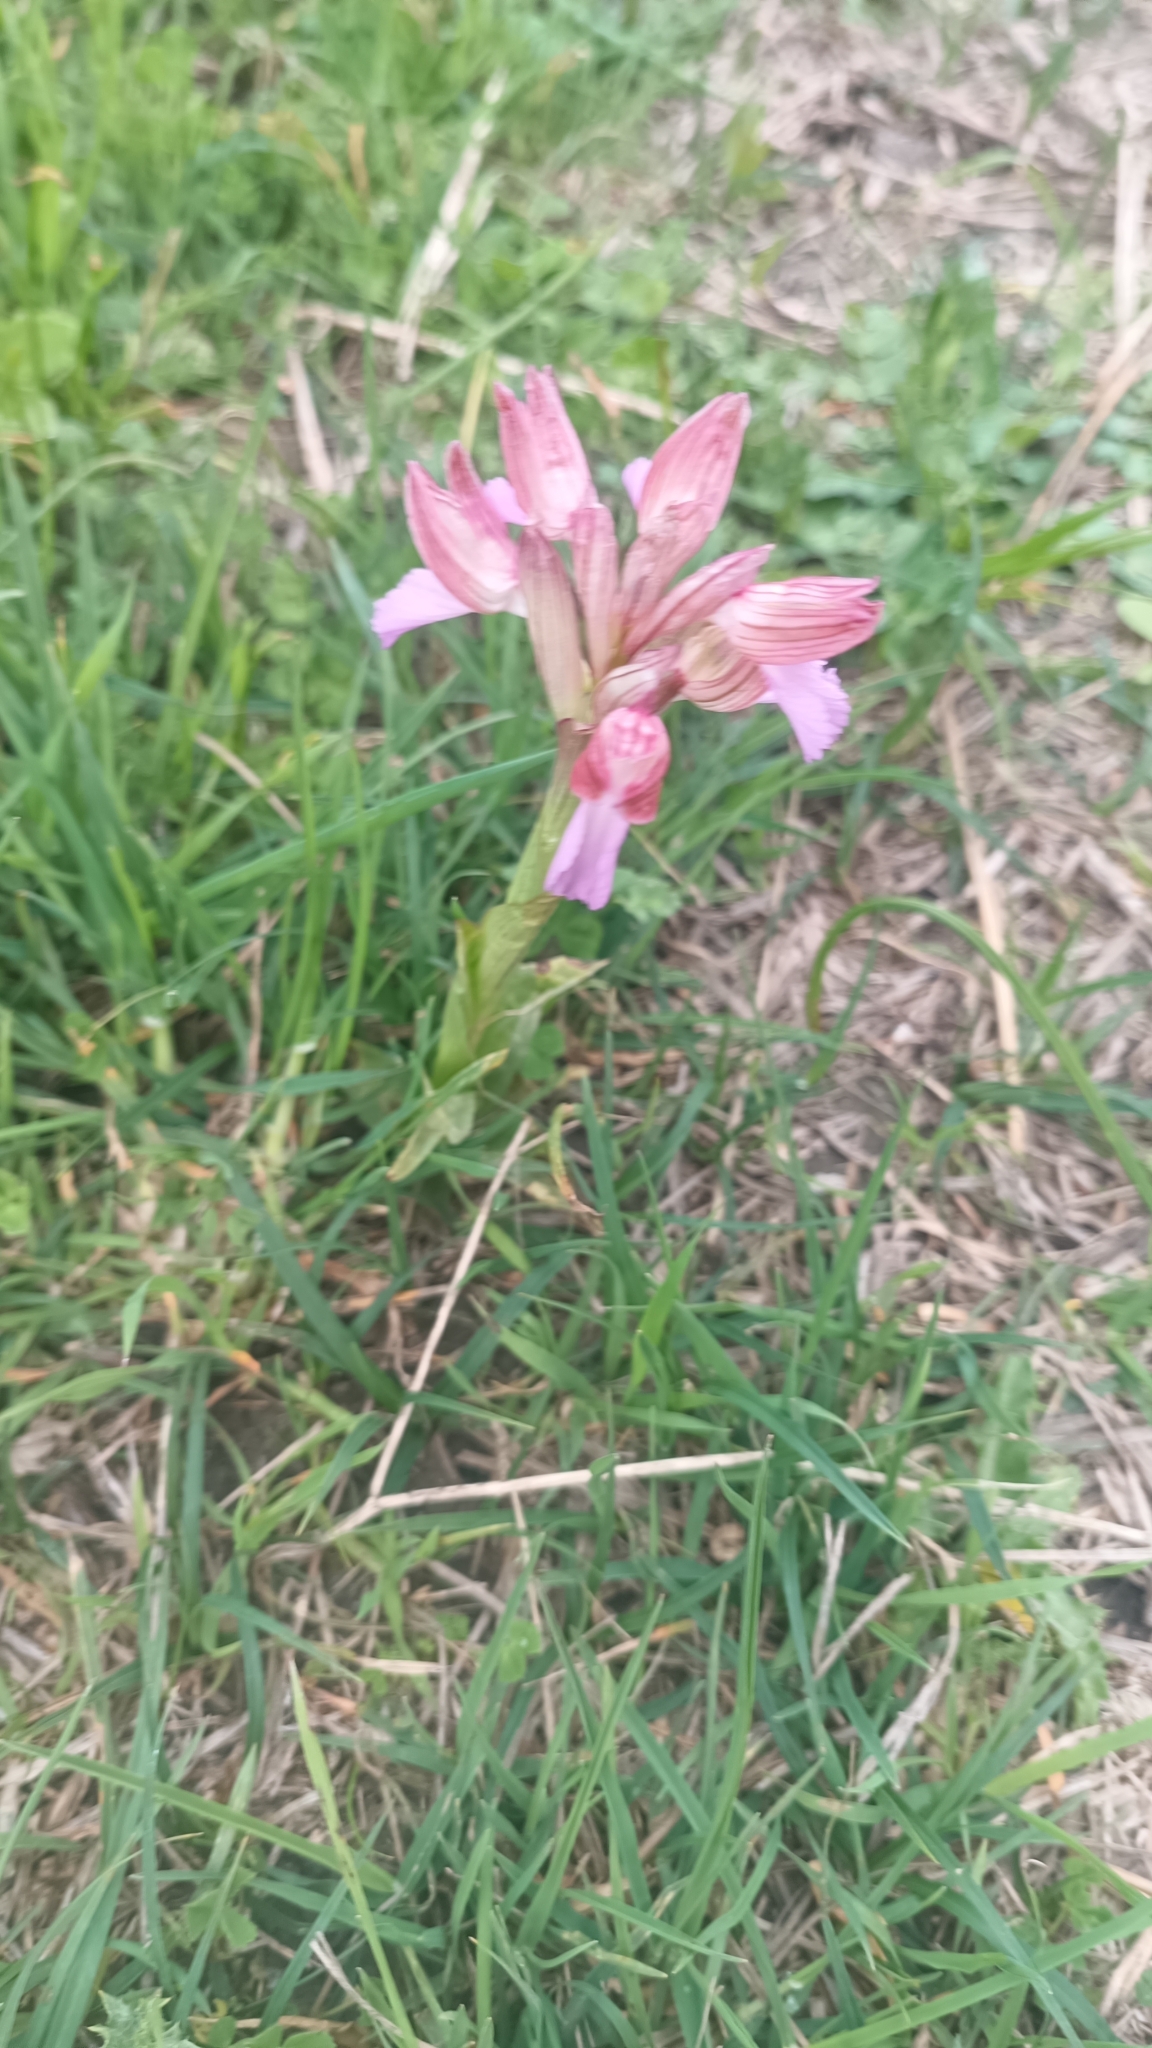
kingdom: Plantae
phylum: Tracheophyta
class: Liliopsida
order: Asparagales
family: Orchidaceae
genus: Anacamptis
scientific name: Anacamptis papilionacea
